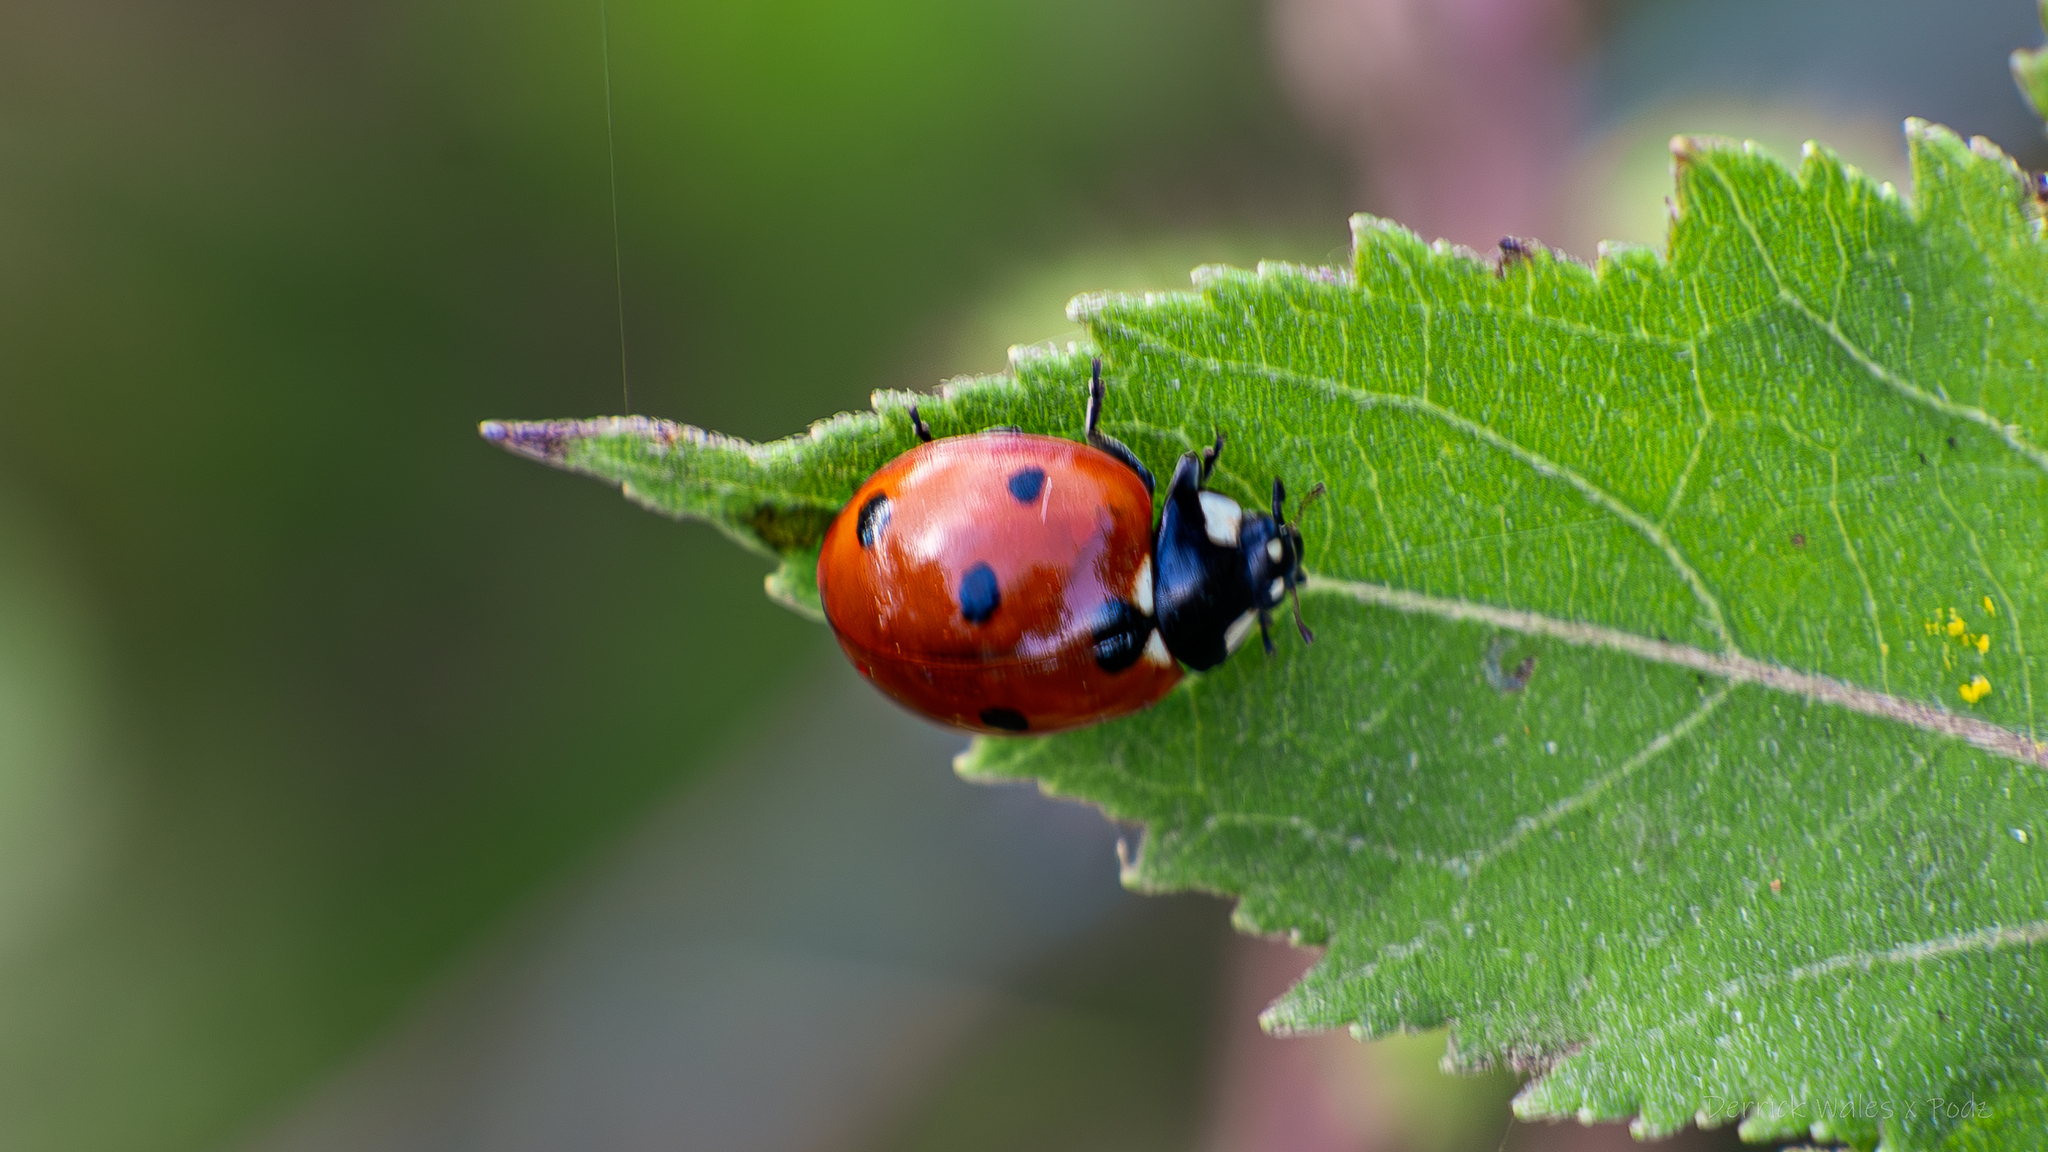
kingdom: Animalia
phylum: Arthropoda
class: Insecta
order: Coleoptera
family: Coccinellidae
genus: Coccinella
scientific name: Coccinella septempunctata
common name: Sevenspotted lady beetle
